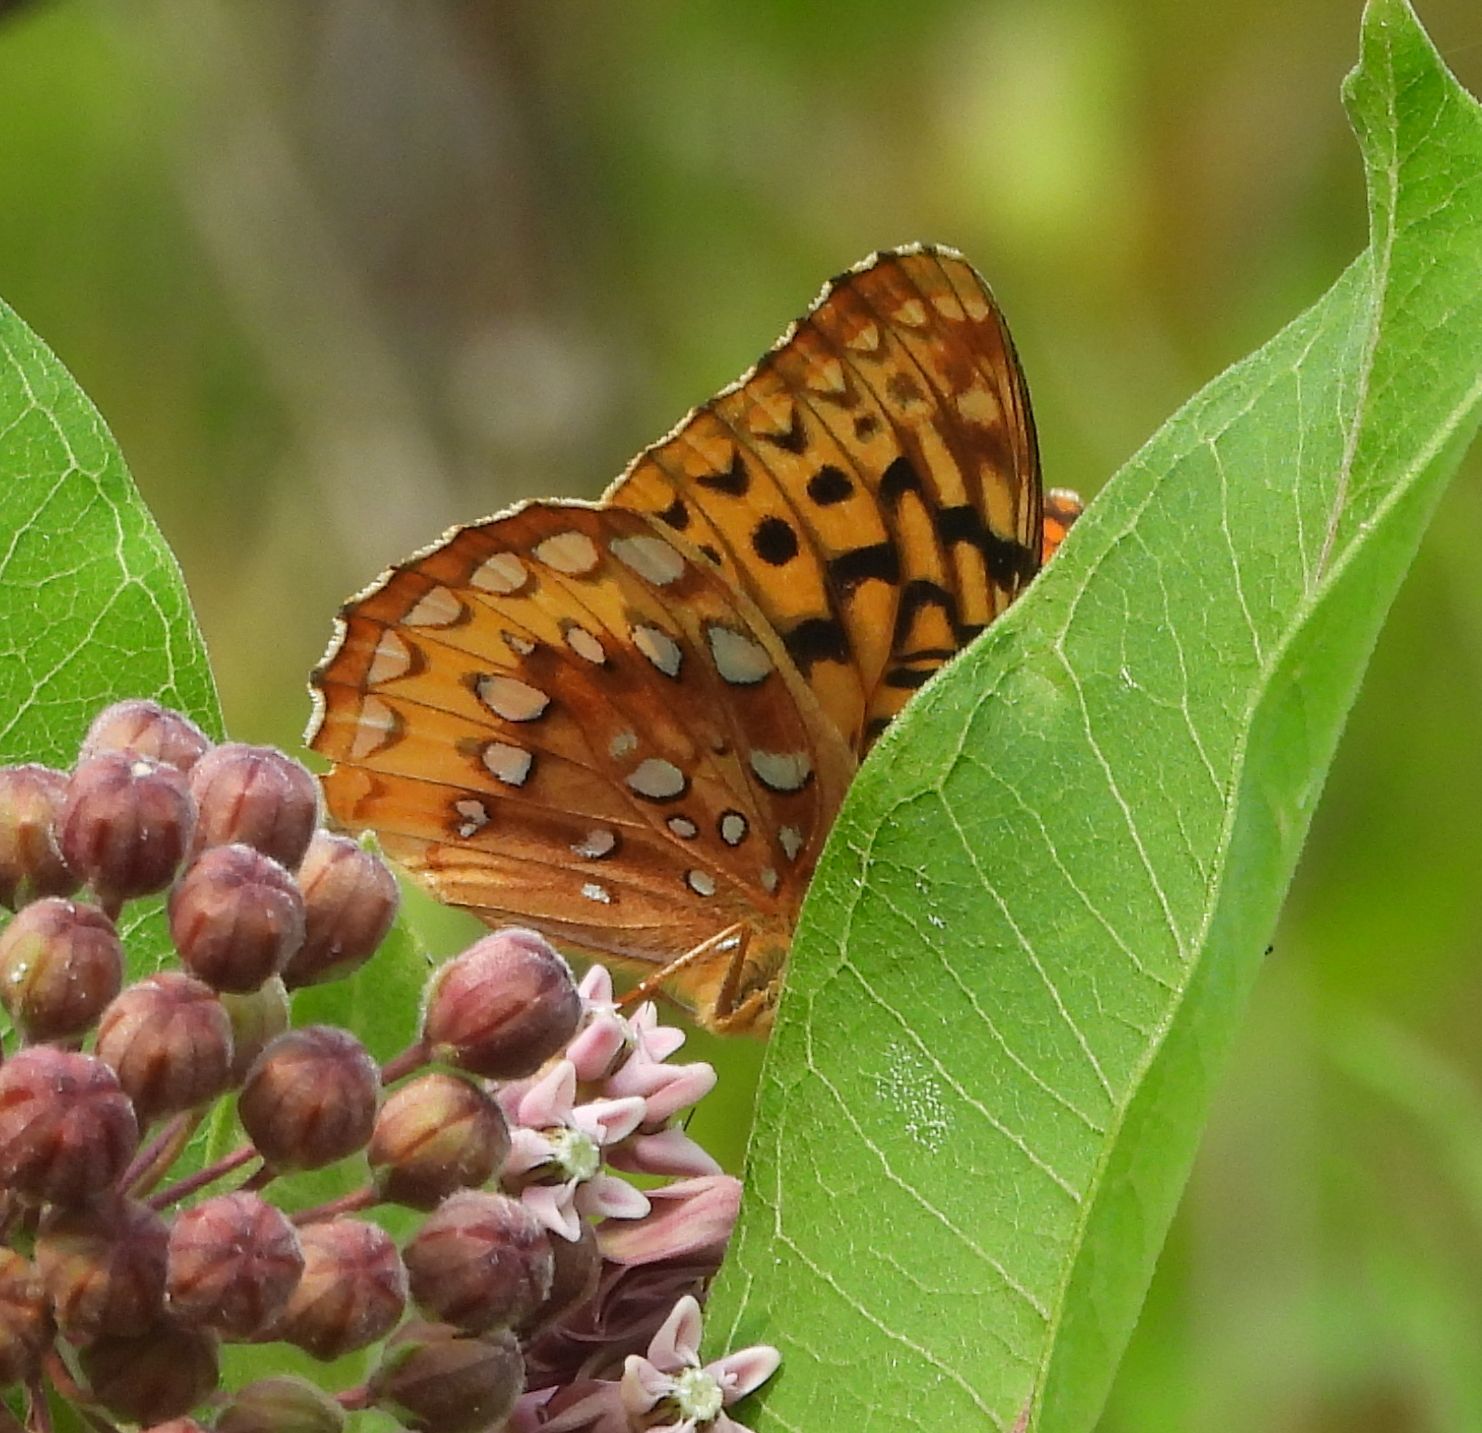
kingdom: Animalia
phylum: Arthropoda
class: Insecta
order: Lepidoptera
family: Nymphalidae
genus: Speyeria
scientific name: Speyeria cybele
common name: Great spangled fritillary
